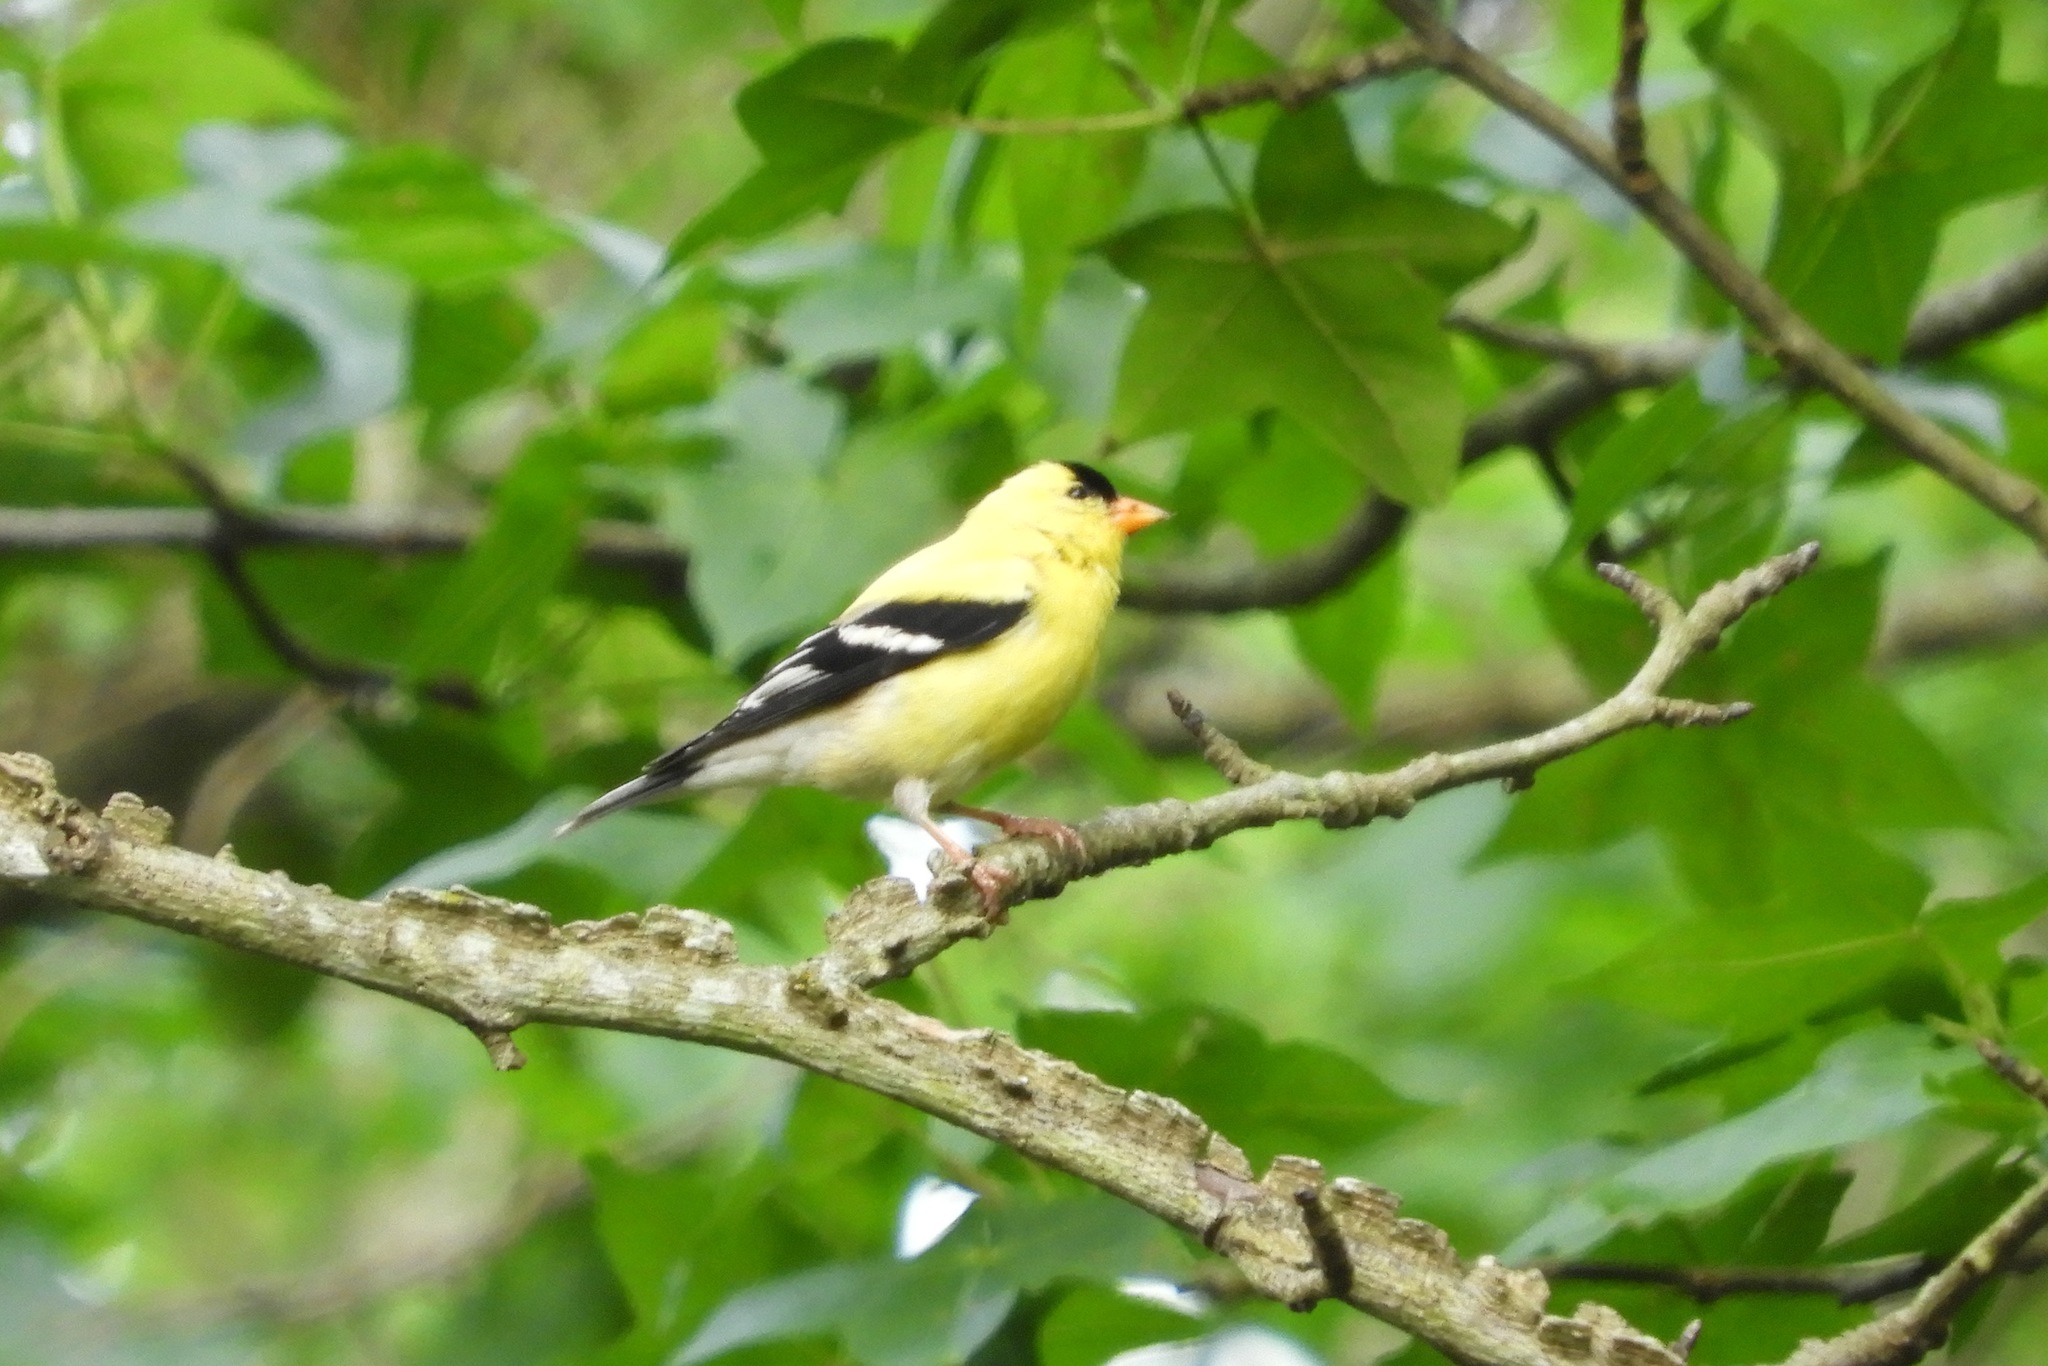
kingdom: Animalia
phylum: Chordata
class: Aves
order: Passeriformes
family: Fringillidae
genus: Spinus
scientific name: Spinus tristis
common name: American goldfinch
